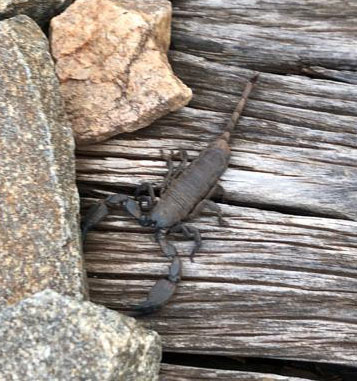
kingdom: Animalia
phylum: Arthropoda
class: Arachnida
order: Scorpiones
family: Hormuridae
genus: Opisthacanthus
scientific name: Opisthacanthus capensis
